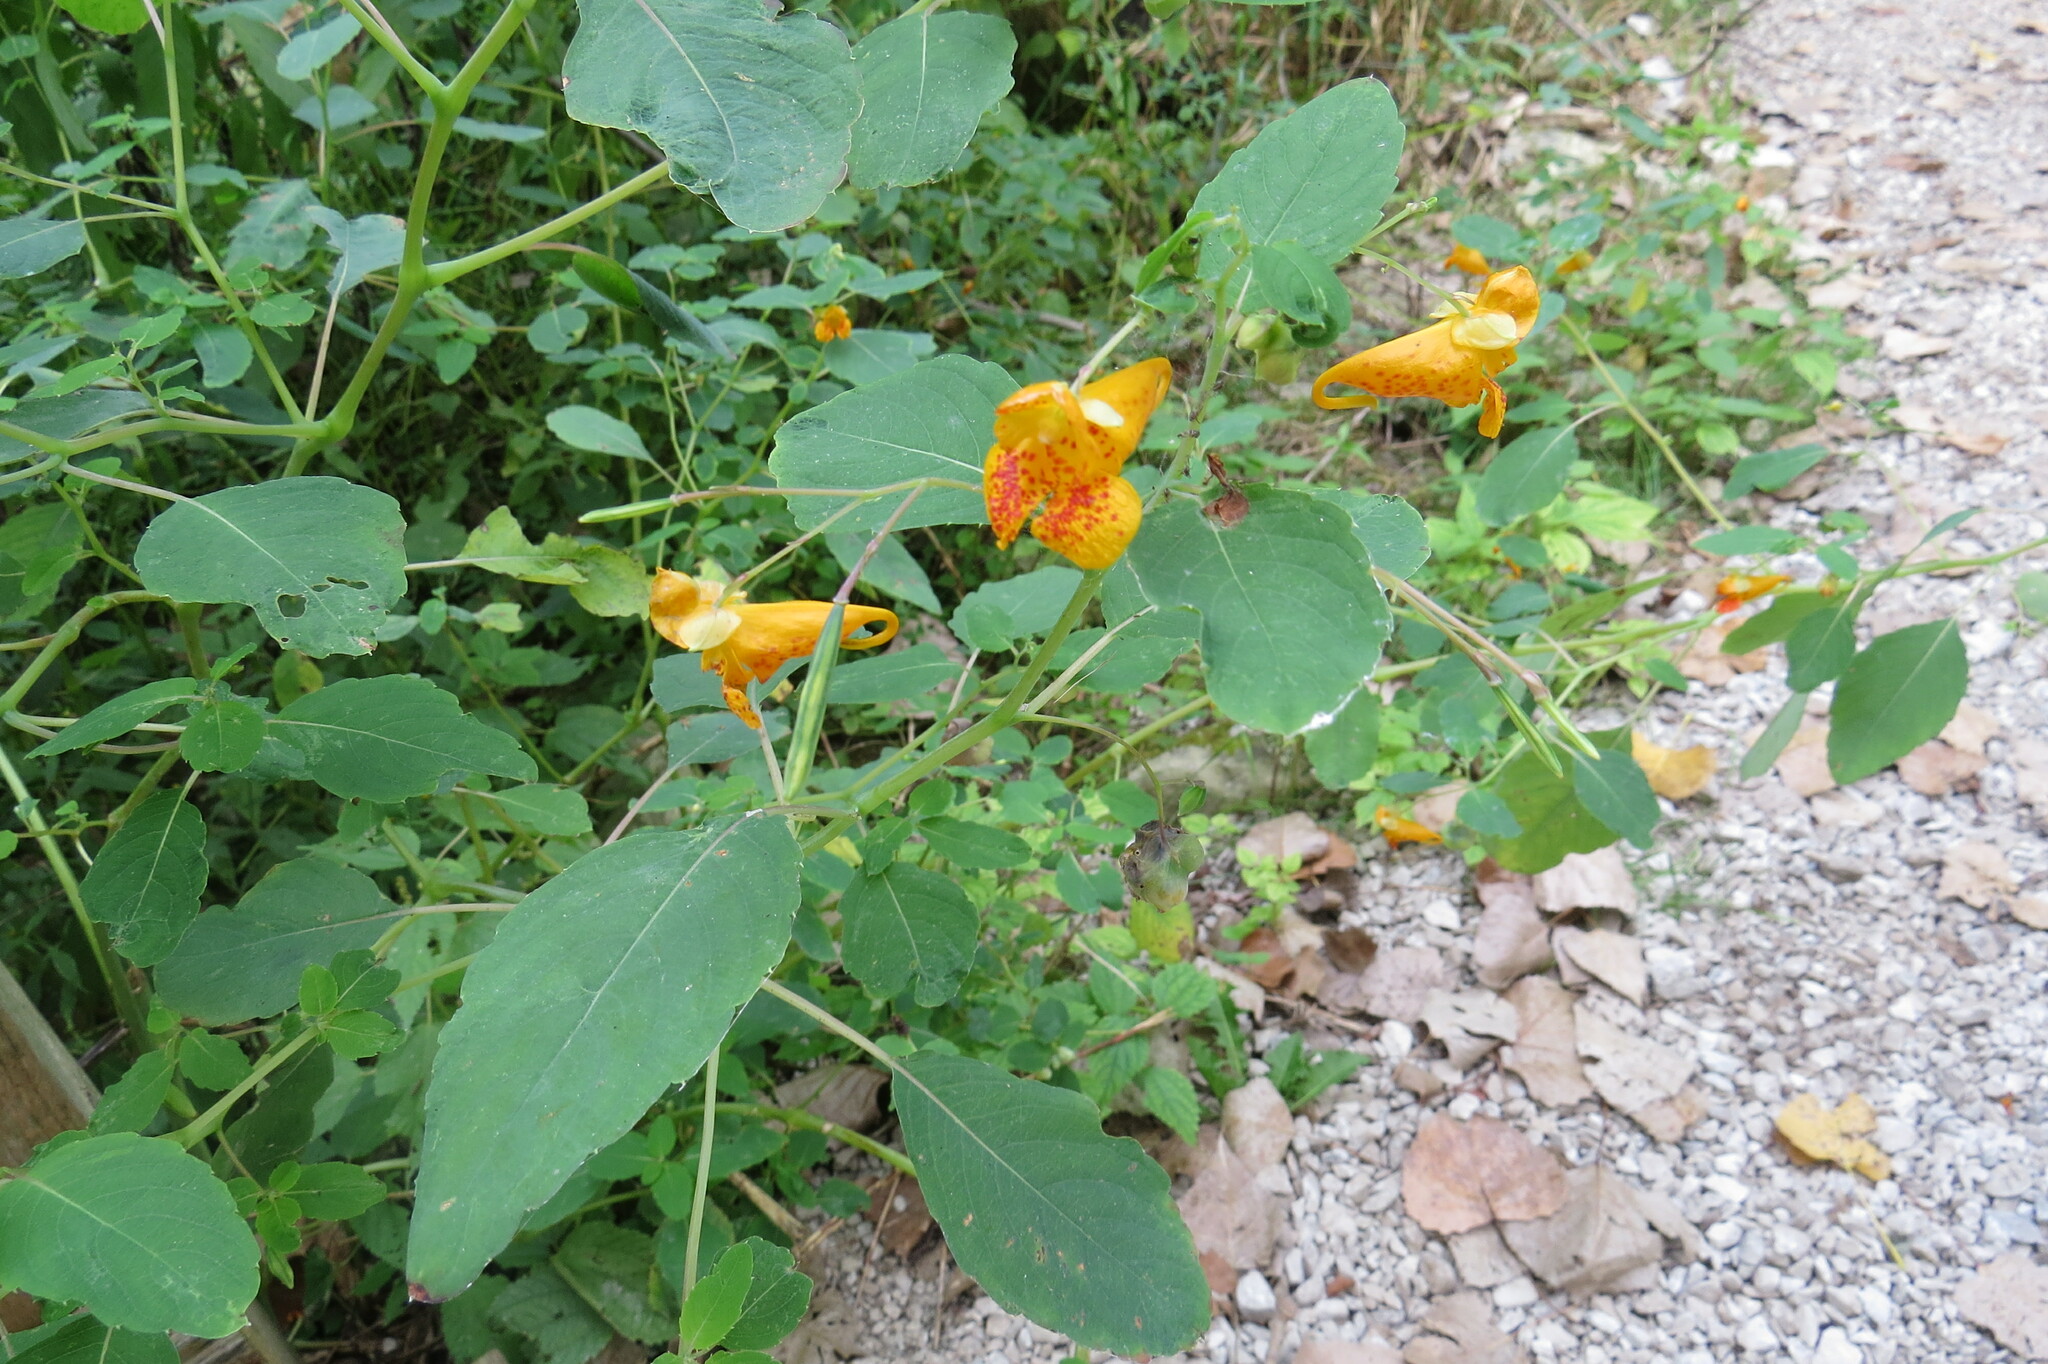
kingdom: Plantae
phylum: Tracheophyta
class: Magnoliopsida
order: Ericales
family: Balsaminaceae
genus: Impatiens
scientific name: Impatiens capensis
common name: Orange balsam
